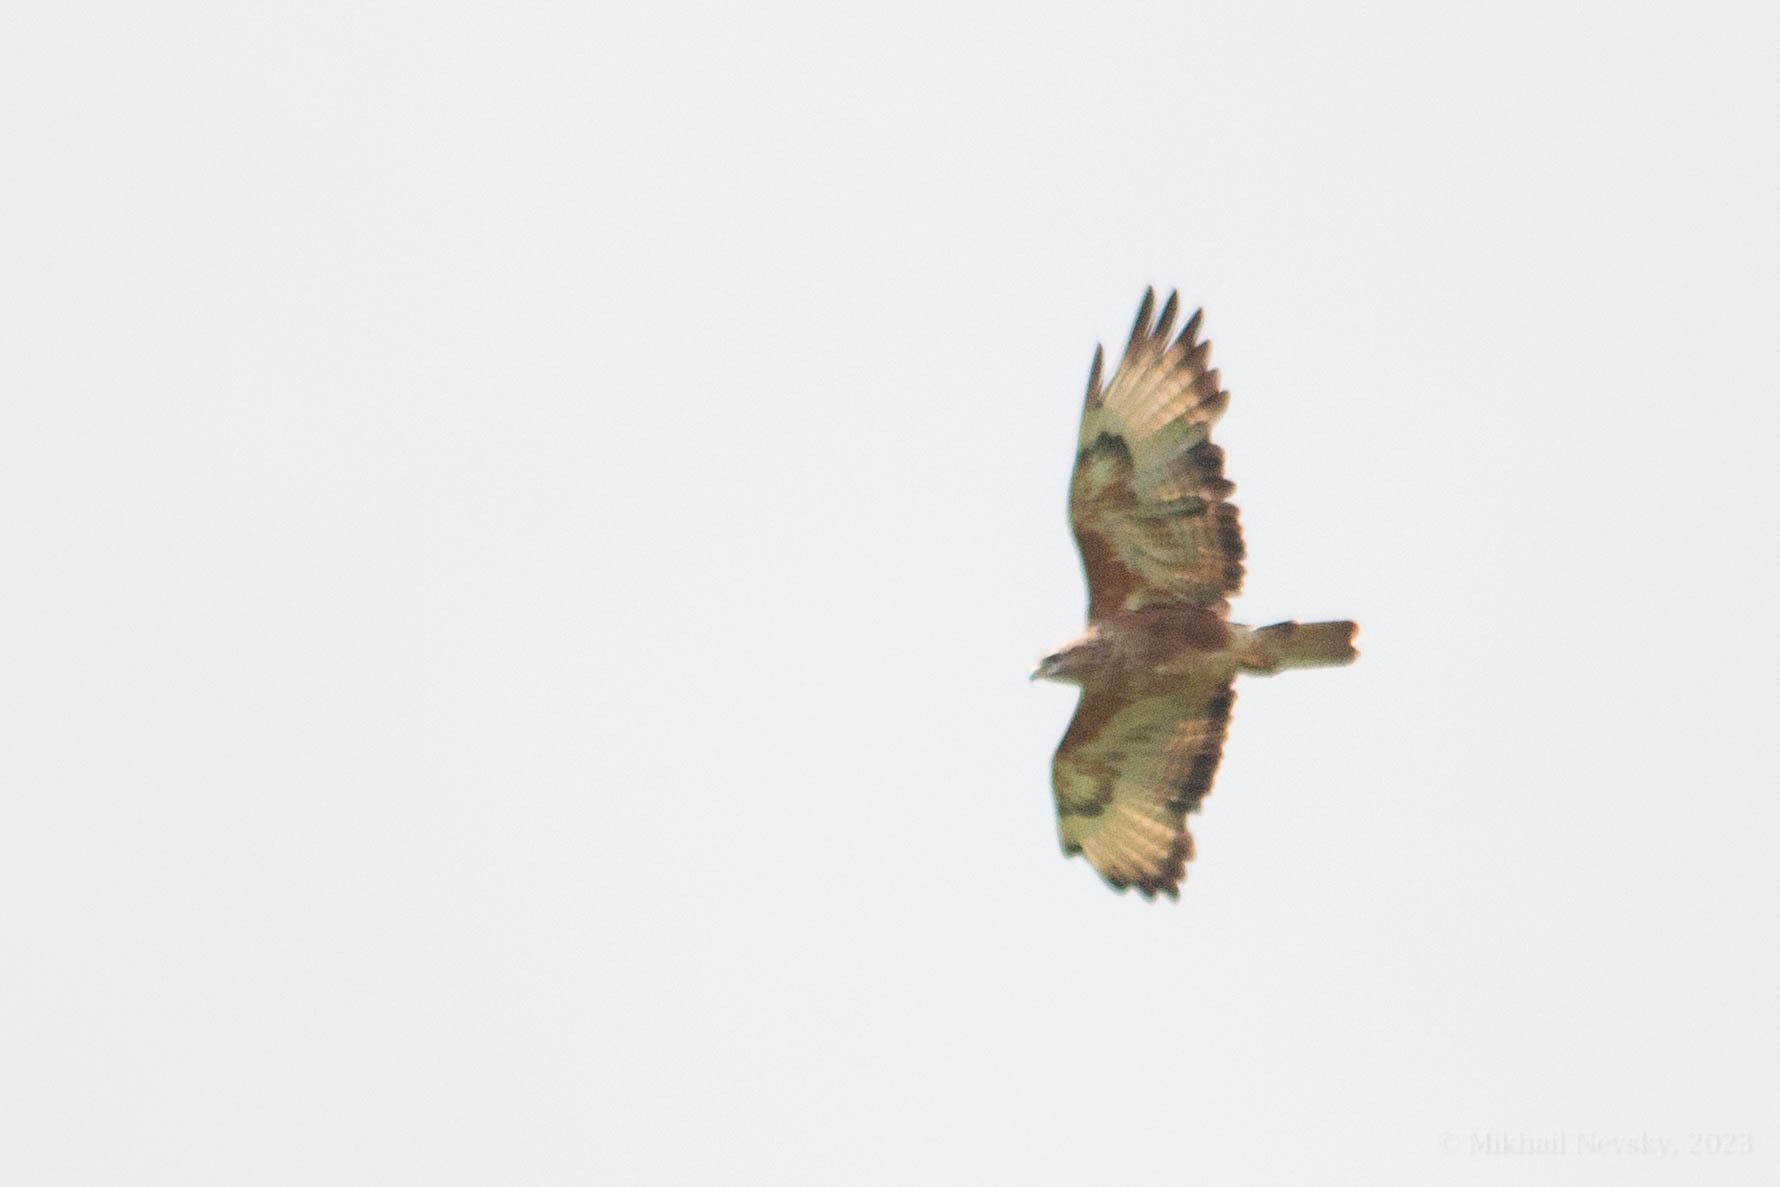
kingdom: Animalia
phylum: Chordata
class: Aves
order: Accipitriformes
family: Accipitridae
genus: Buteo
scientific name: Buteo buteo
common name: Common buzzard
